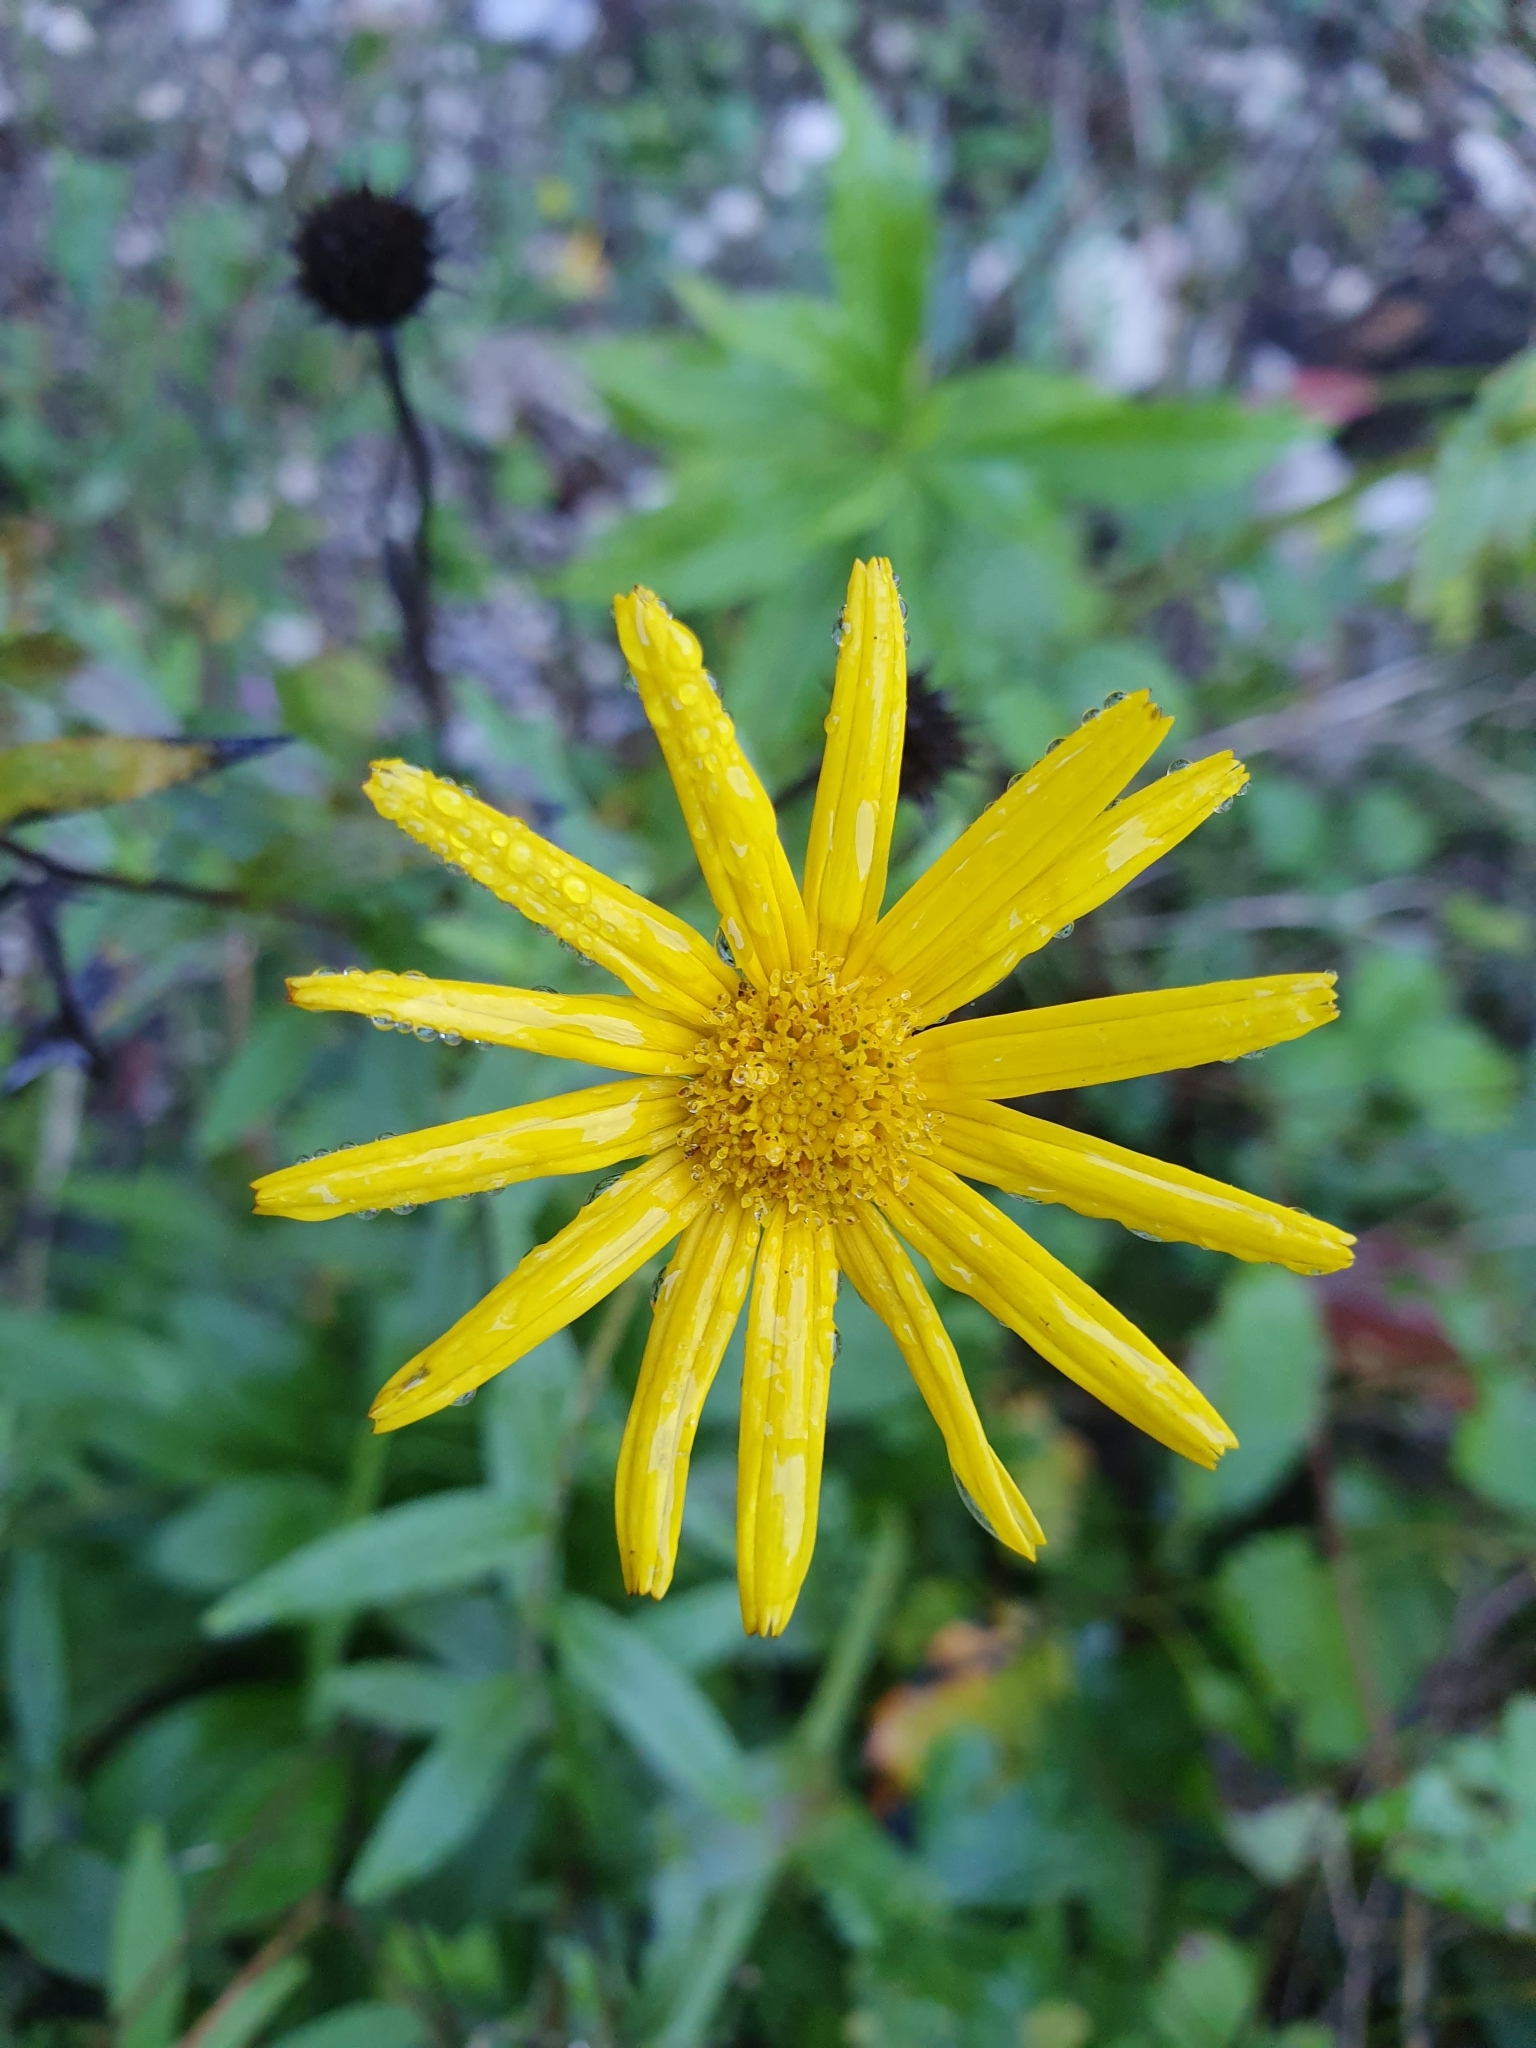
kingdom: Plantae
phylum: Tracheophyta
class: Magnoliopsida
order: Asterales
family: Asteraceae
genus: Buphthalmum
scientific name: Buphthalmum salicifolium
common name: Willow-leaved yellow-oxeye
